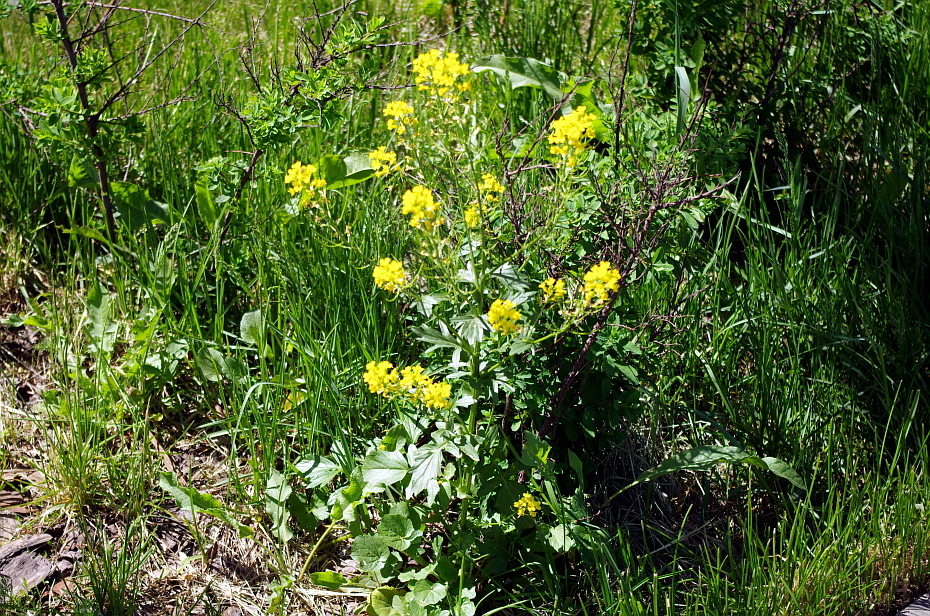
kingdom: Plantae
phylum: Tracheophyta
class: Magnoliopsida
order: Brassicales
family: Brassicaceae
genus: Barbarea
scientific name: Barbarea vulgaris
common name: Cressy-greens
